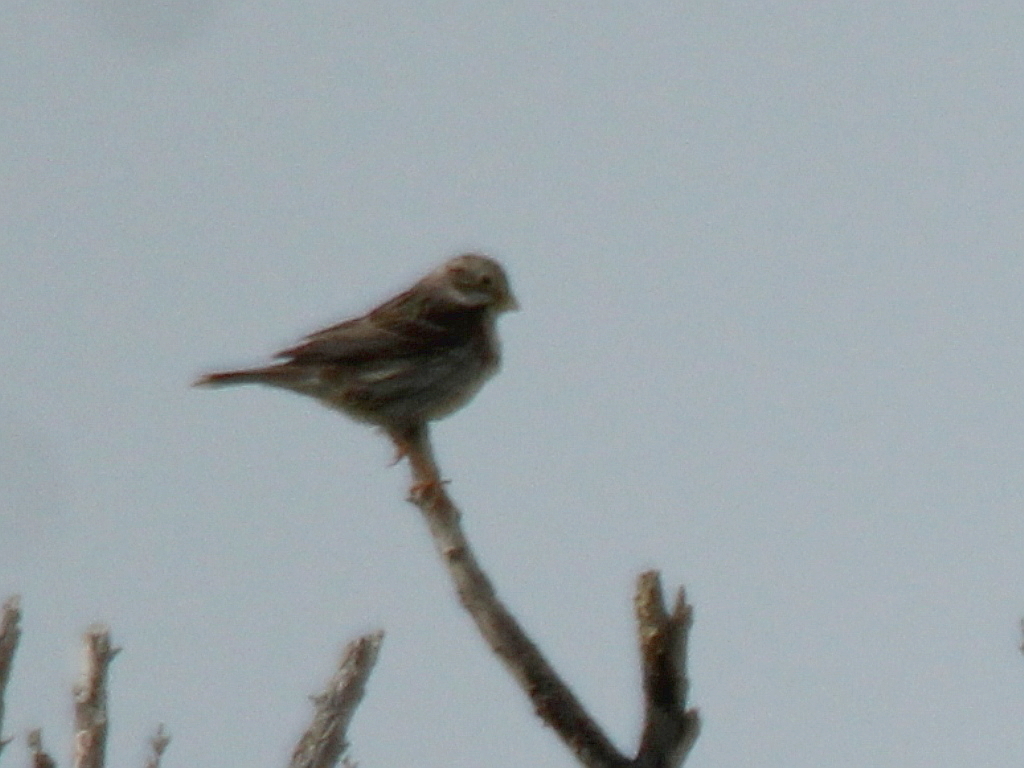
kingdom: Animalia
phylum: Chordata
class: Aves
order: Passeriformes
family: Emberizidae
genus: Emberiza
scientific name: Emberiza calandra
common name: Corn bunting
